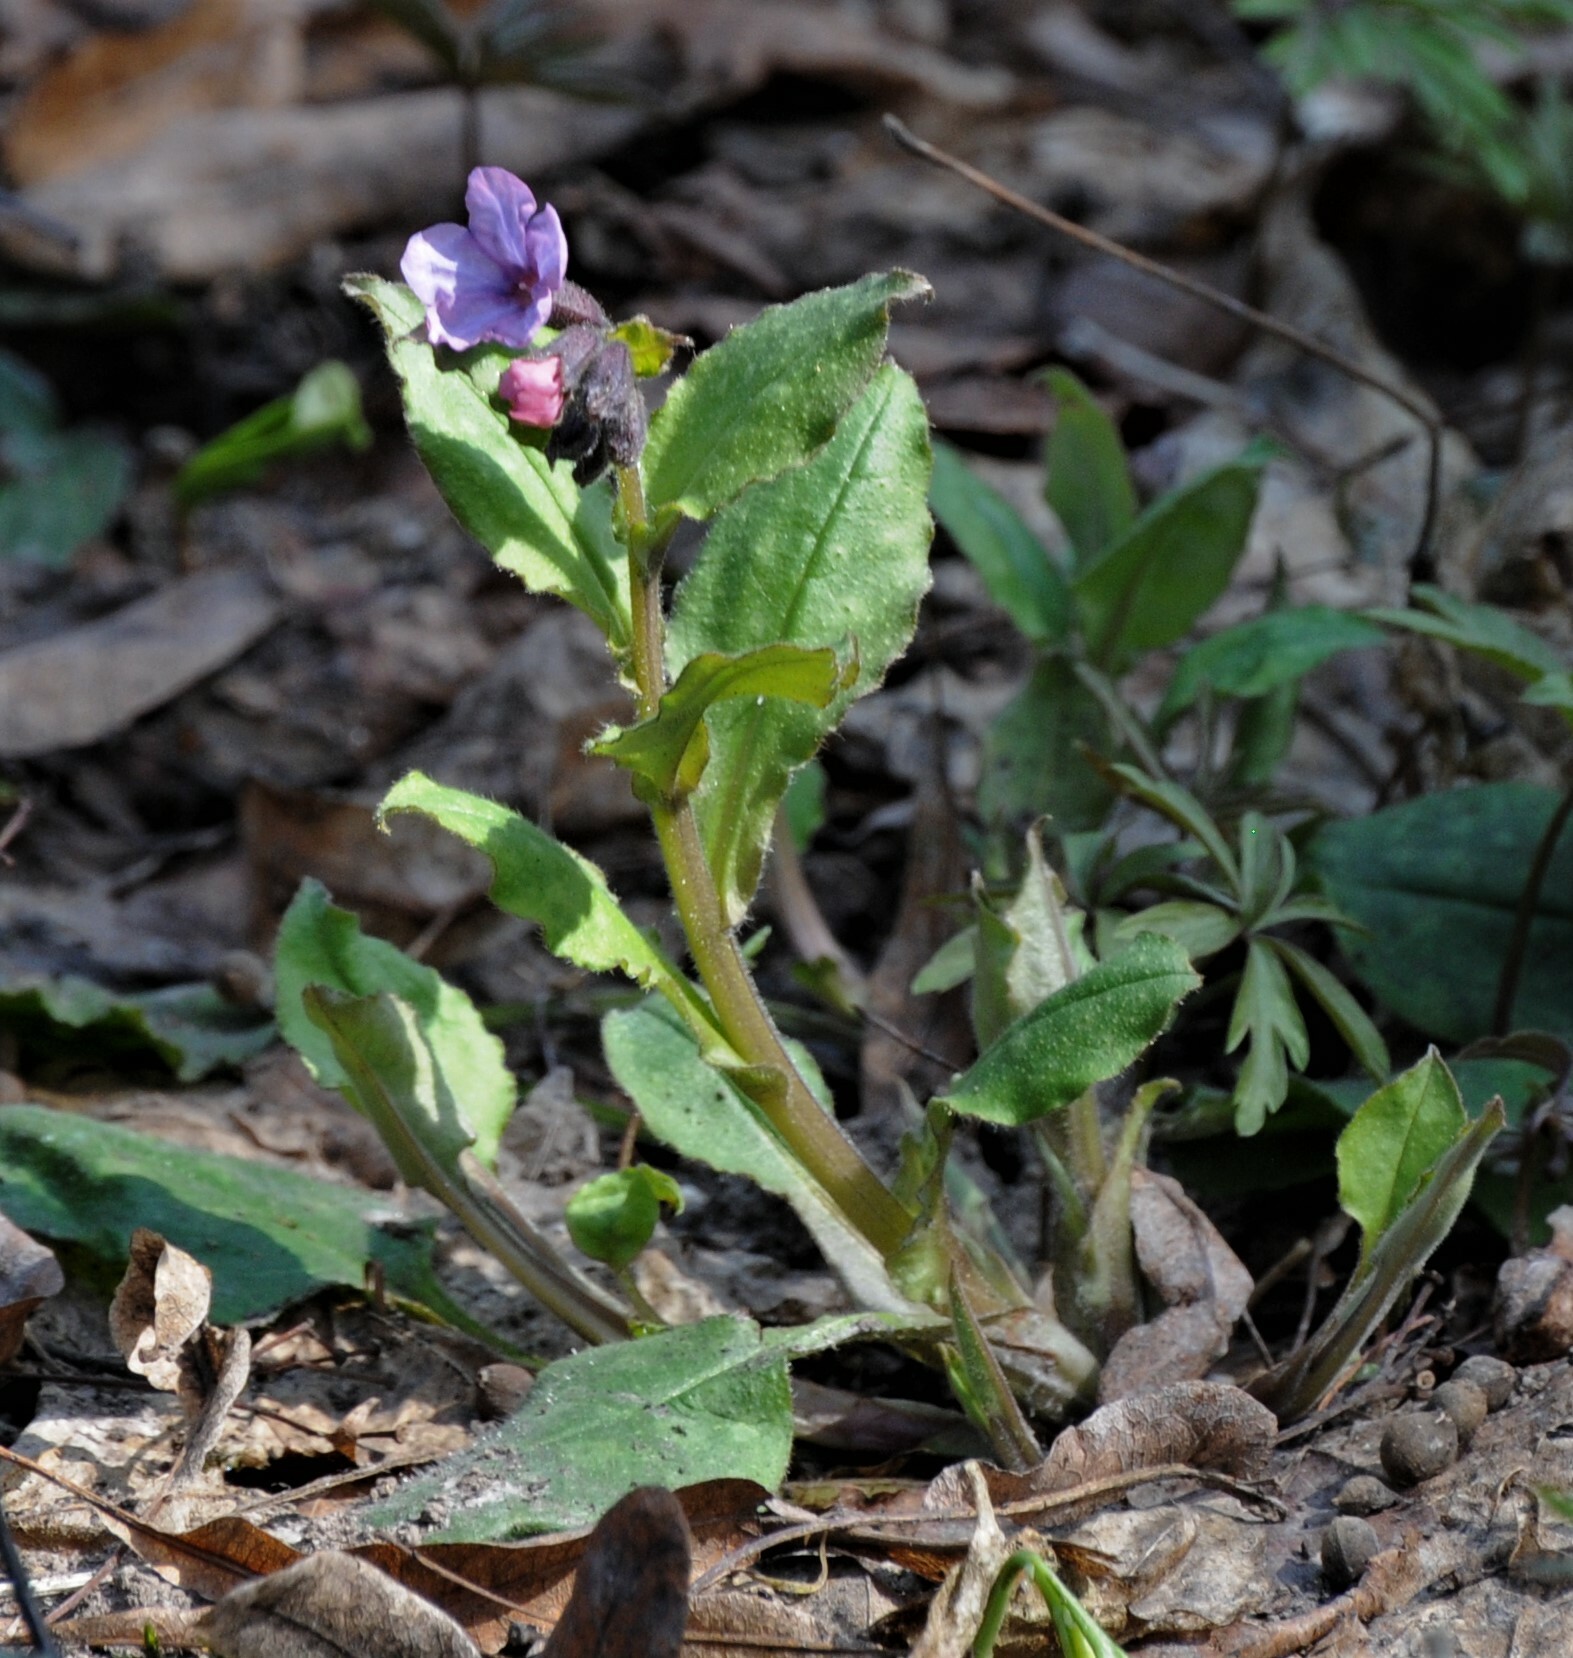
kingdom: Plantae
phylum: Tracheophyta
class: Magnoliopsida
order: Boraginales
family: Boraginaceae
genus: Pulmonaria
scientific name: Pulmonaria obscura
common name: Suffolk lungwort
